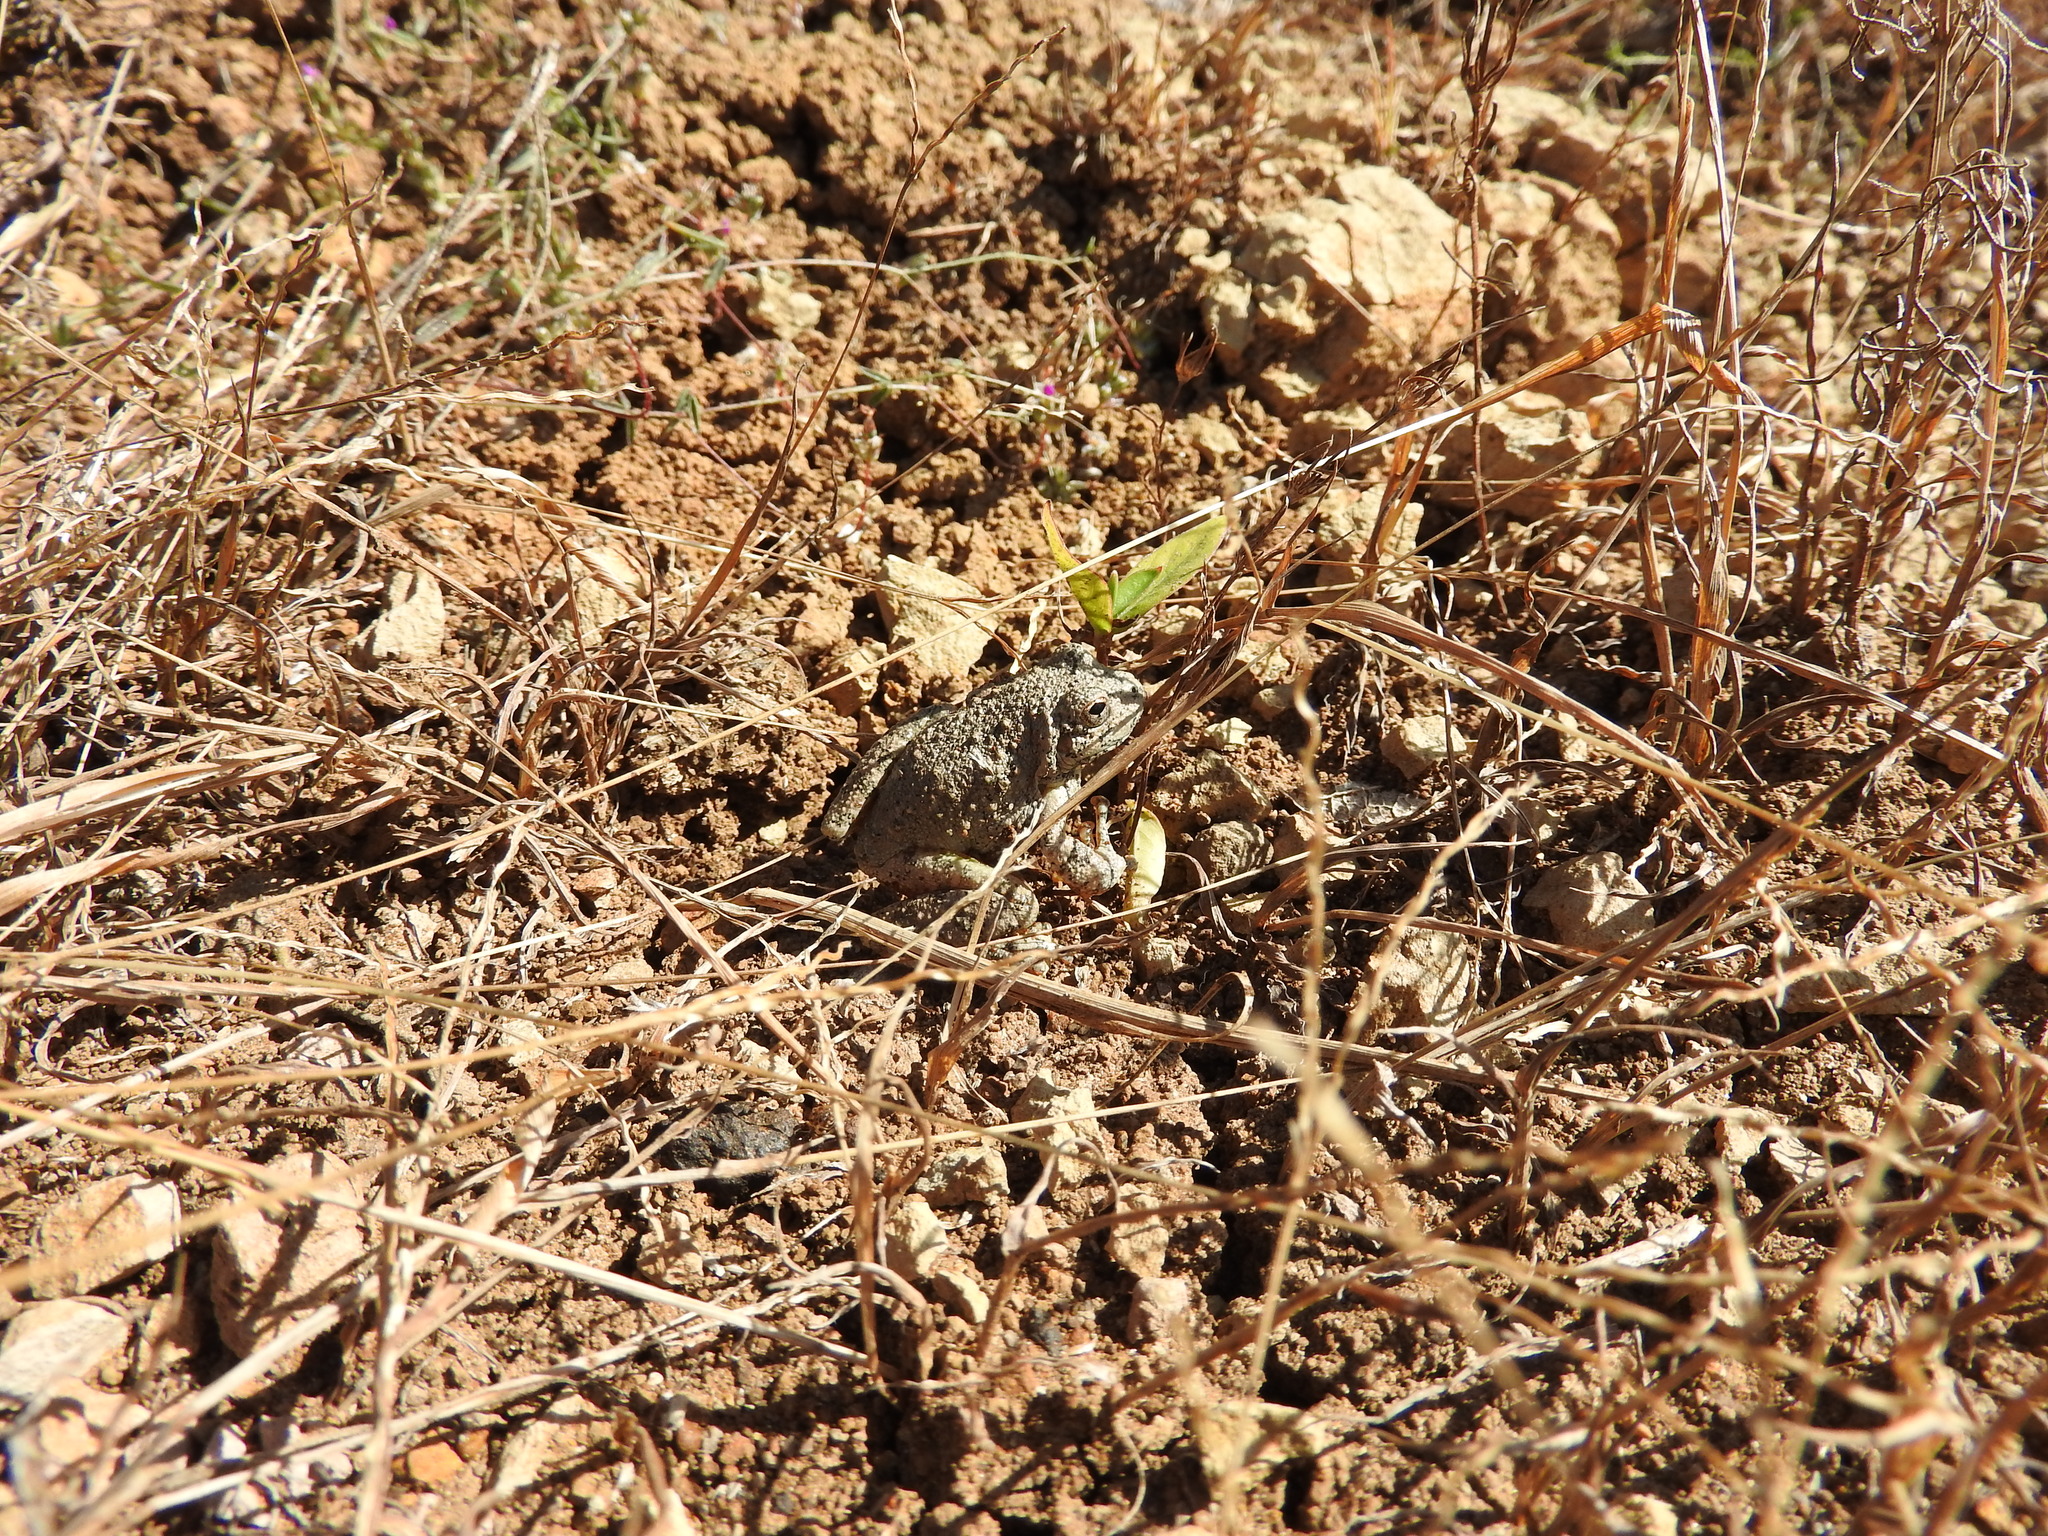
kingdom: Animalia
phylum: Chordata
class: Amphibia
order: Anura
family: Hylidae
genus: Dryophytes
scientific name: Dryophytes arenicolor
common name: Canyon treefrog
